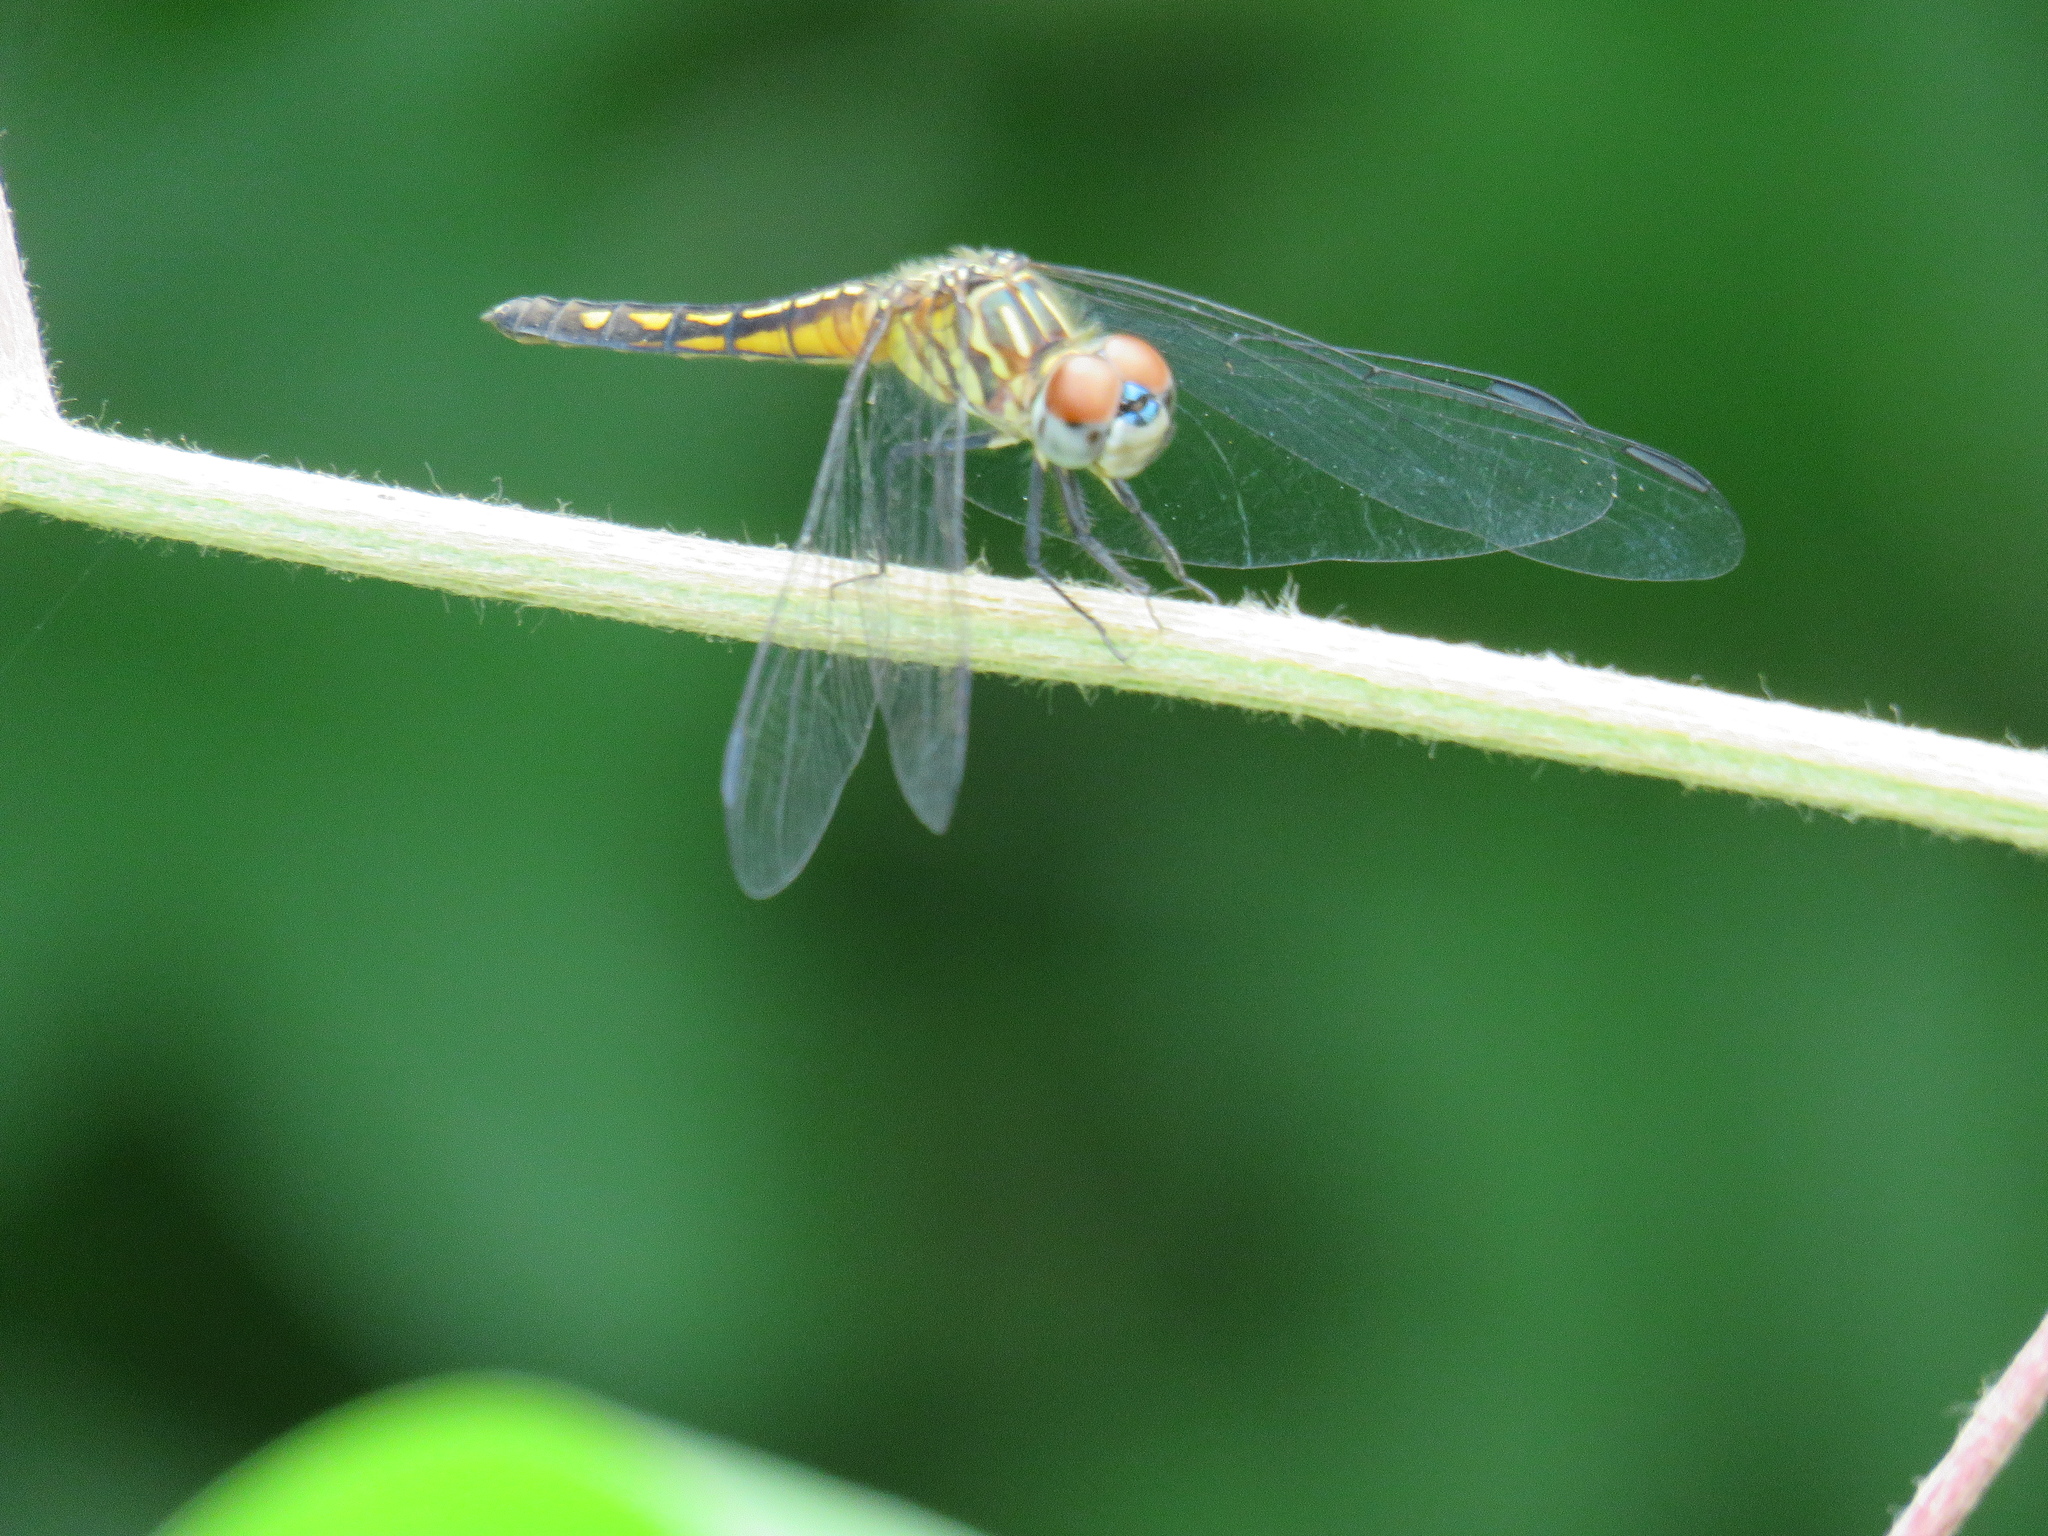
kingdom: Animalia
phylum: Arthropoda
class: Insecta
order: Odonata
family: Libellulidae
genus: Pachydiplax
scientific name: Pachydiplax longipennis
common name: Blue dasher
